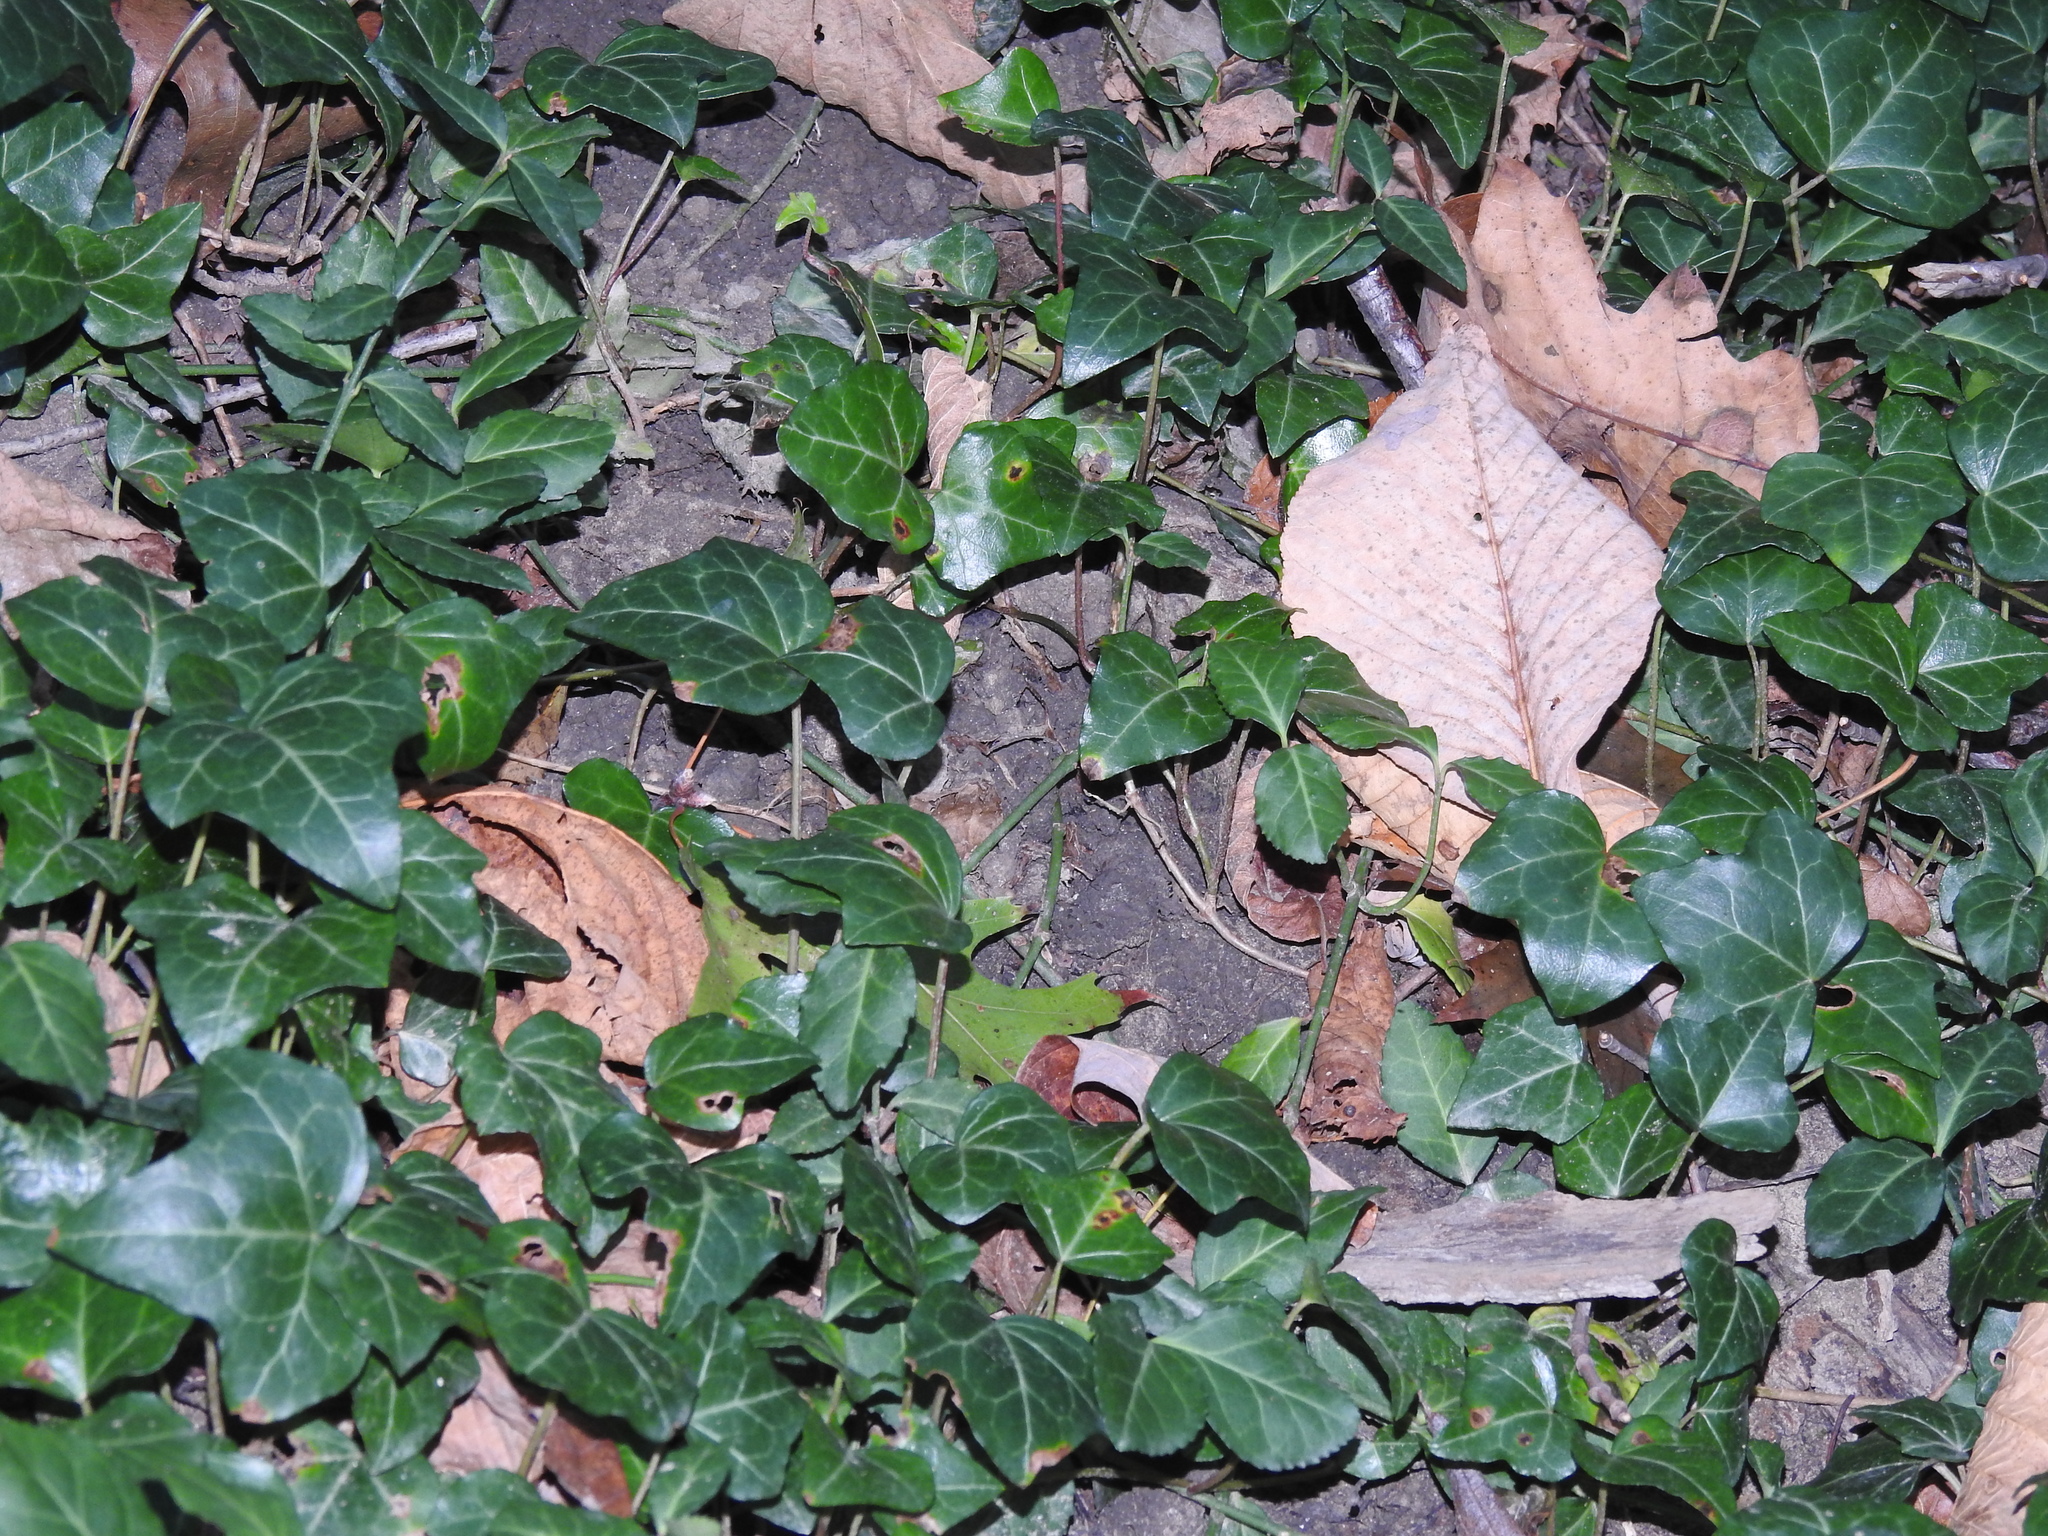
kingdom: Plantae
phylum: Tracheophyta
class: Magnoliopsida
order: Celastrales
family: Celastraceae
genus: Euonymus
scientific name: Euonymus fortunei
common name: Climbing euonymus
